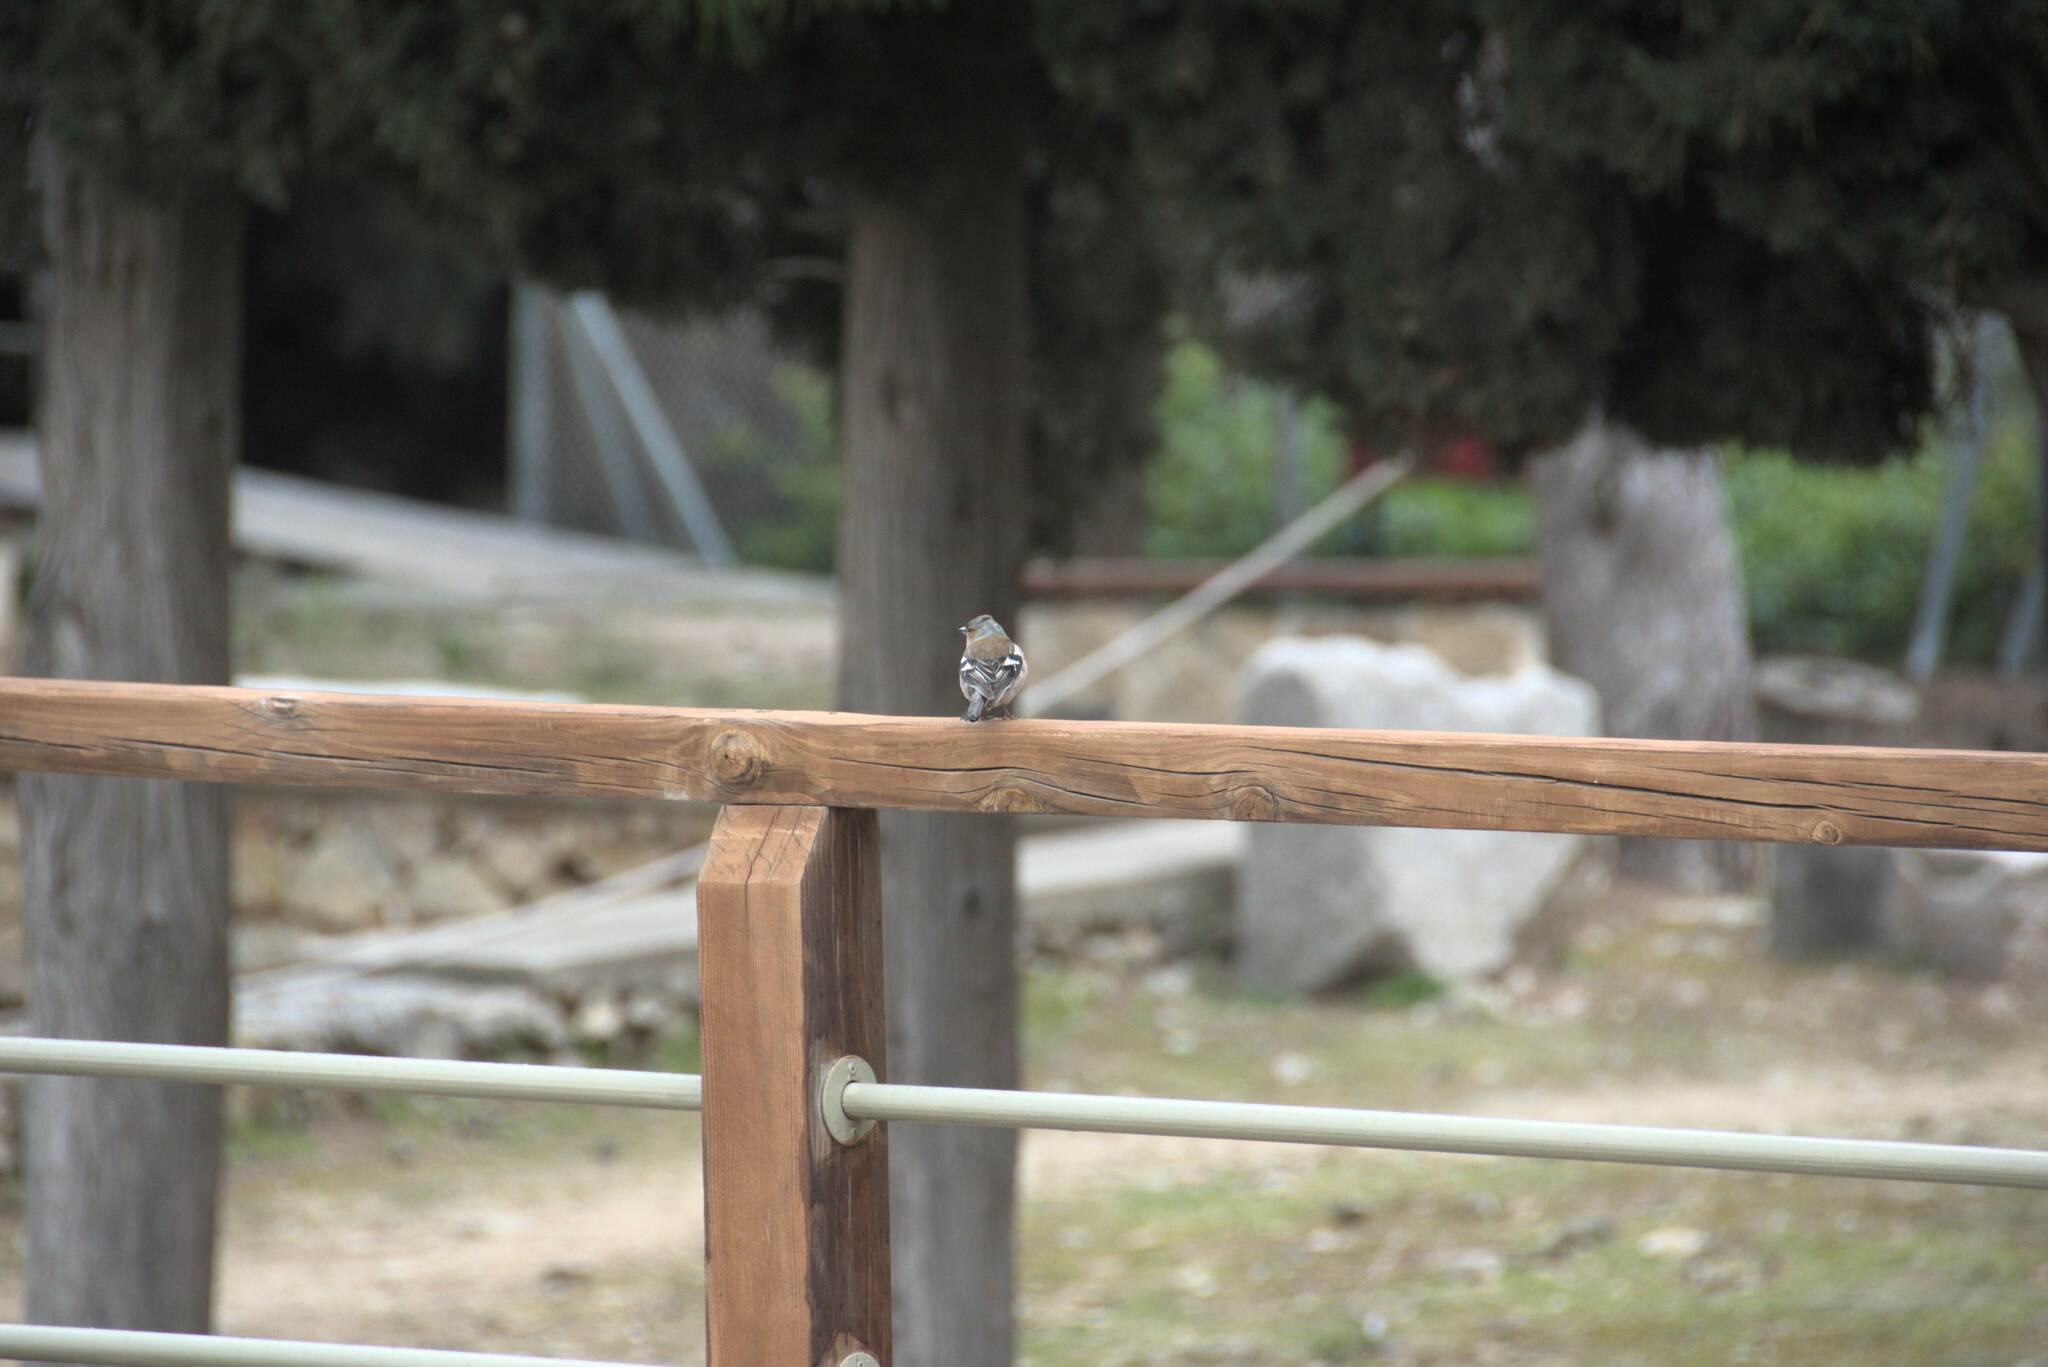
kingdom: Animalia
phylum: Chordata
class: Aves
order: Passeriformes
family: Fringillidae
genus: Fringilla
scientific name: Fringilla coelebs
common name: Common chaffinch
